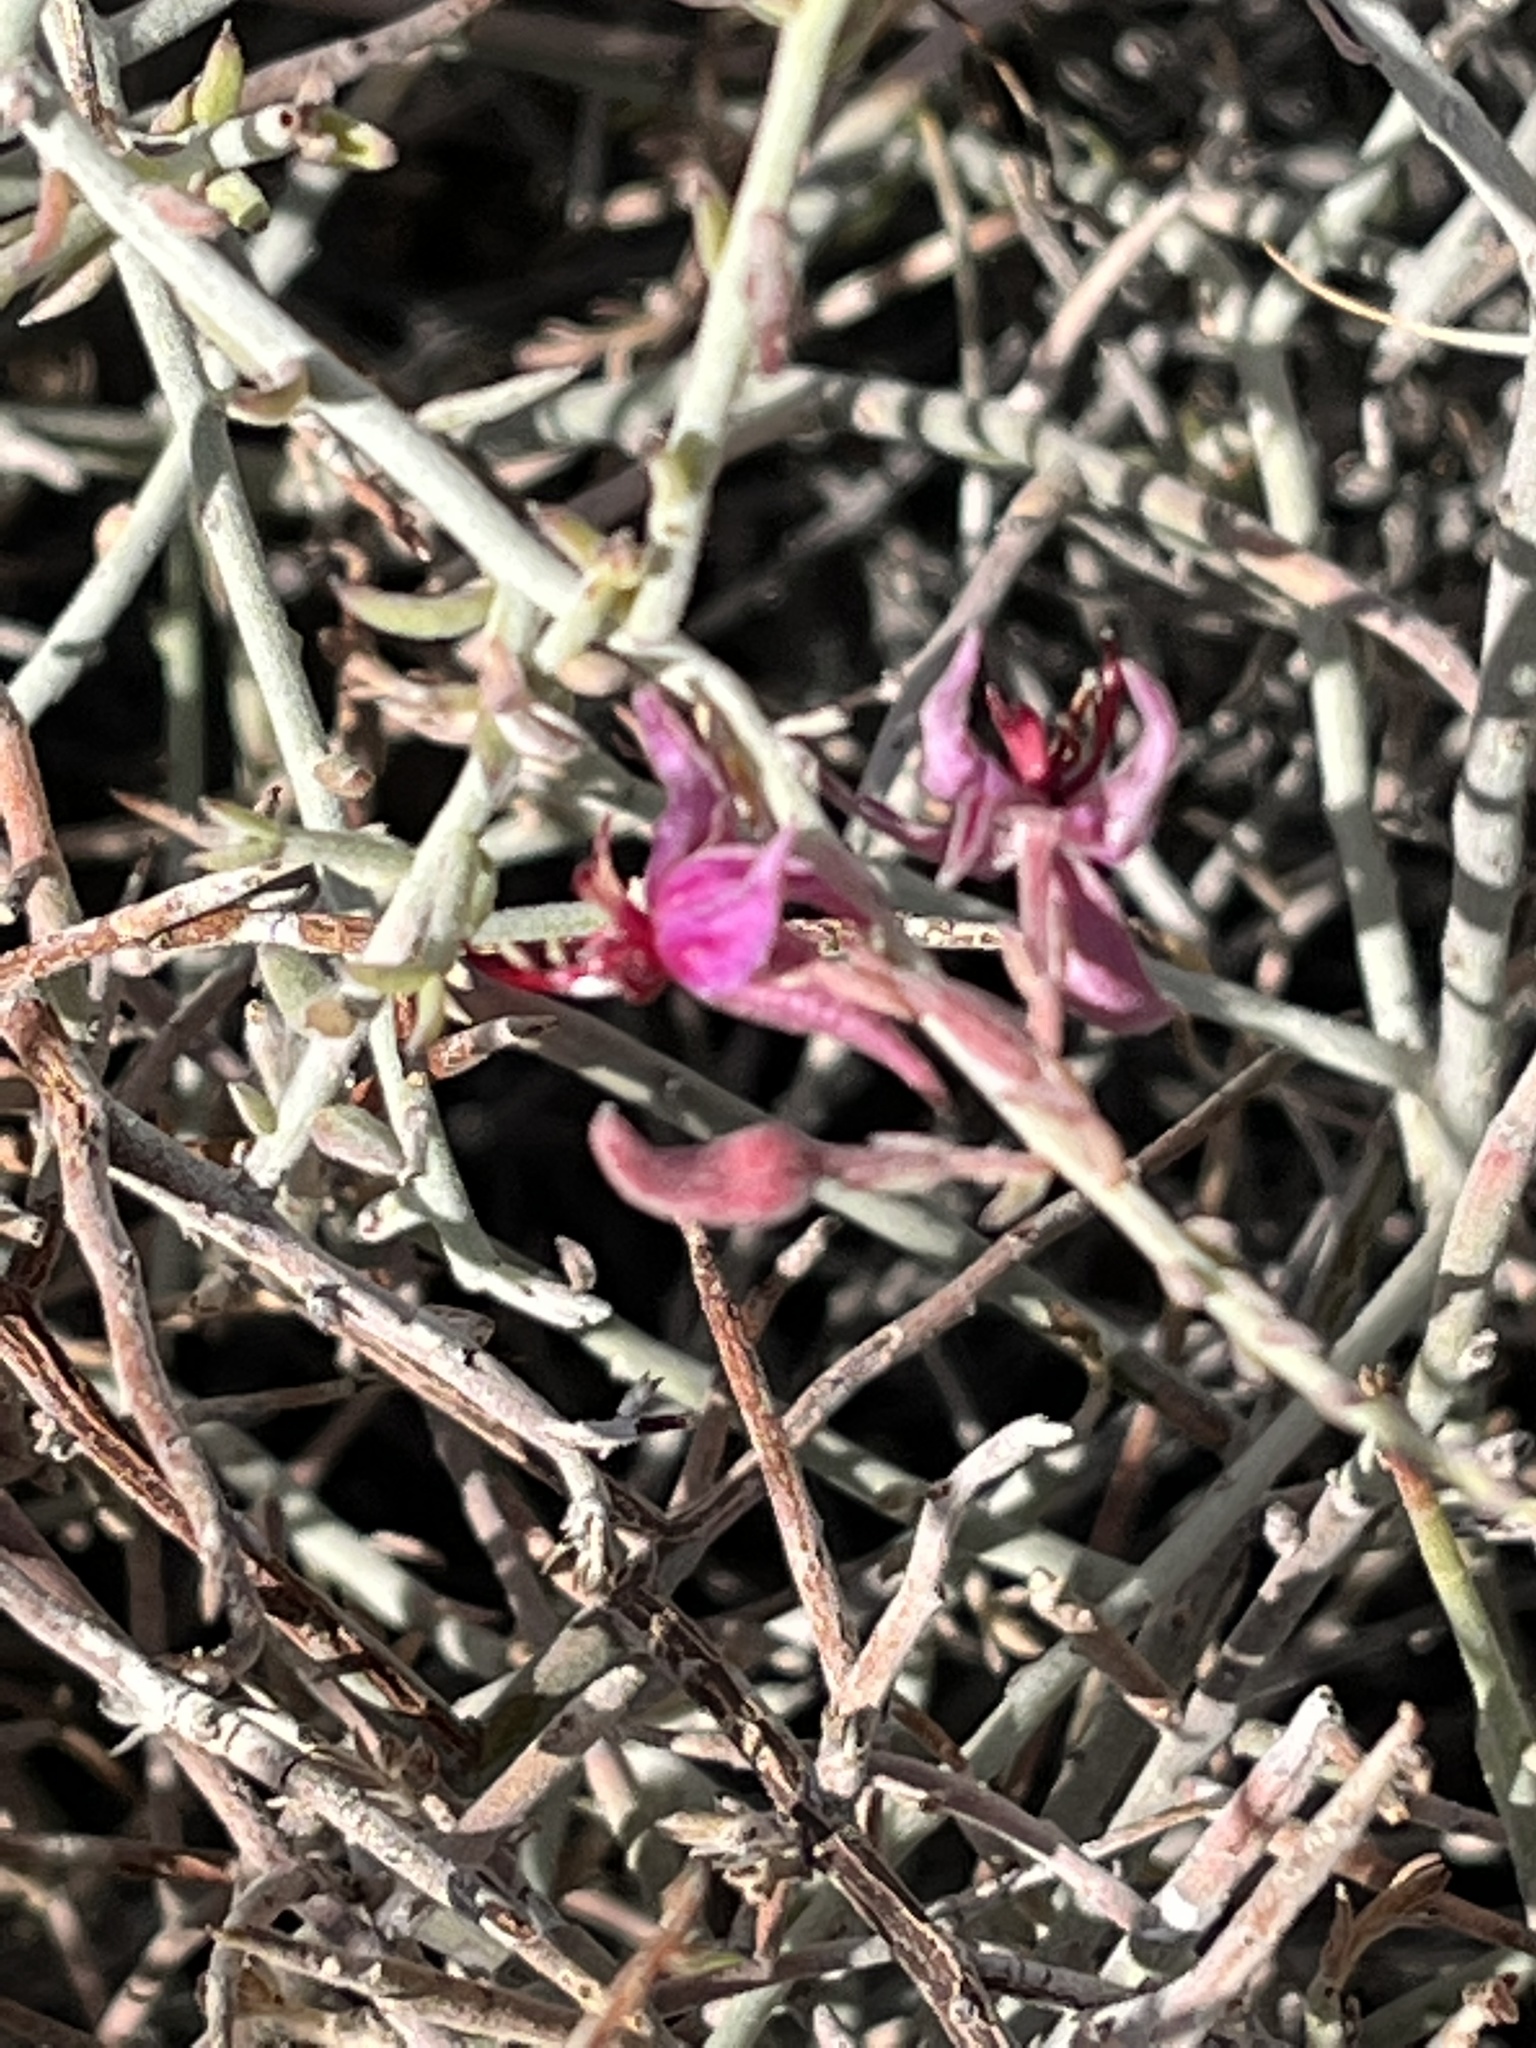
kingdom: Plantae
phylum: Tracheophyta
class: Magnoliopsida
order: Zygophyllales
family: Krameriaceae
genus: Krameria
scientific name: Krameria bicolor
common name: White ratany
